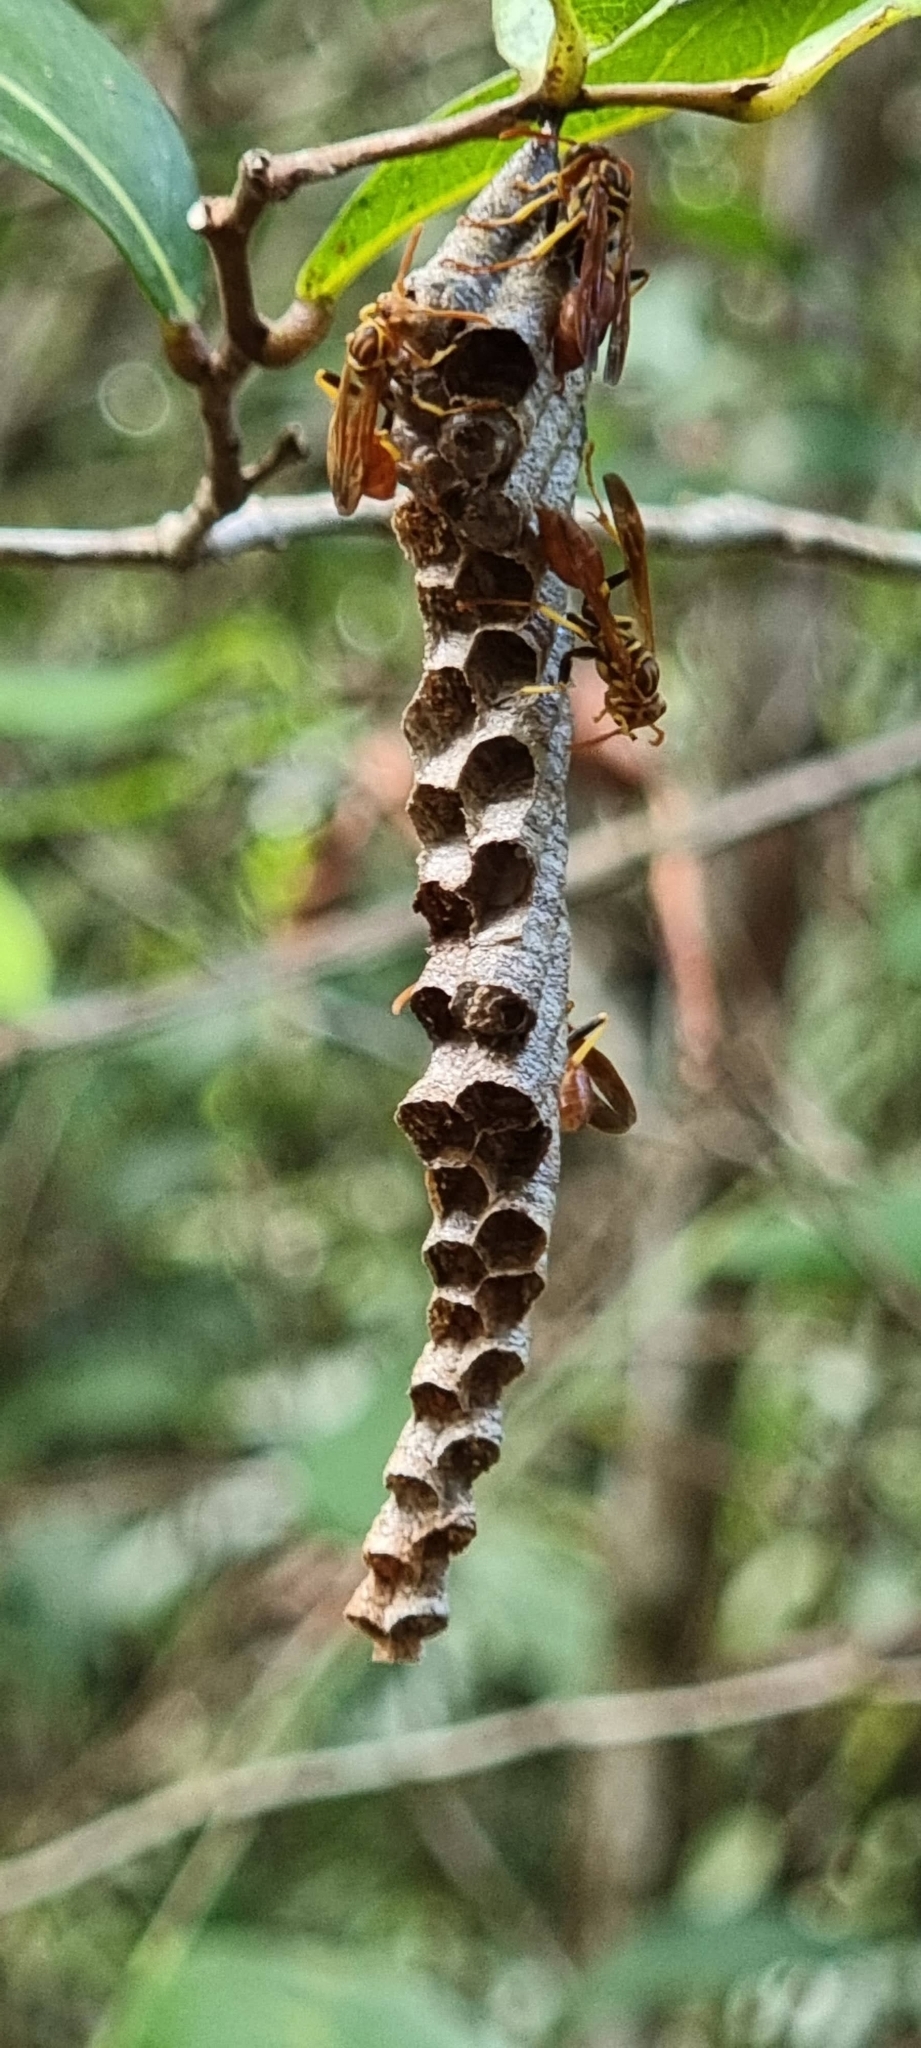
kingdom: Animalia
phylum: Arthropoda
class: Insecta
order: Hymenoptera
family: Vespidae
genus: Mischocyttarus
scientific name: Mischocyttarus cubensis
